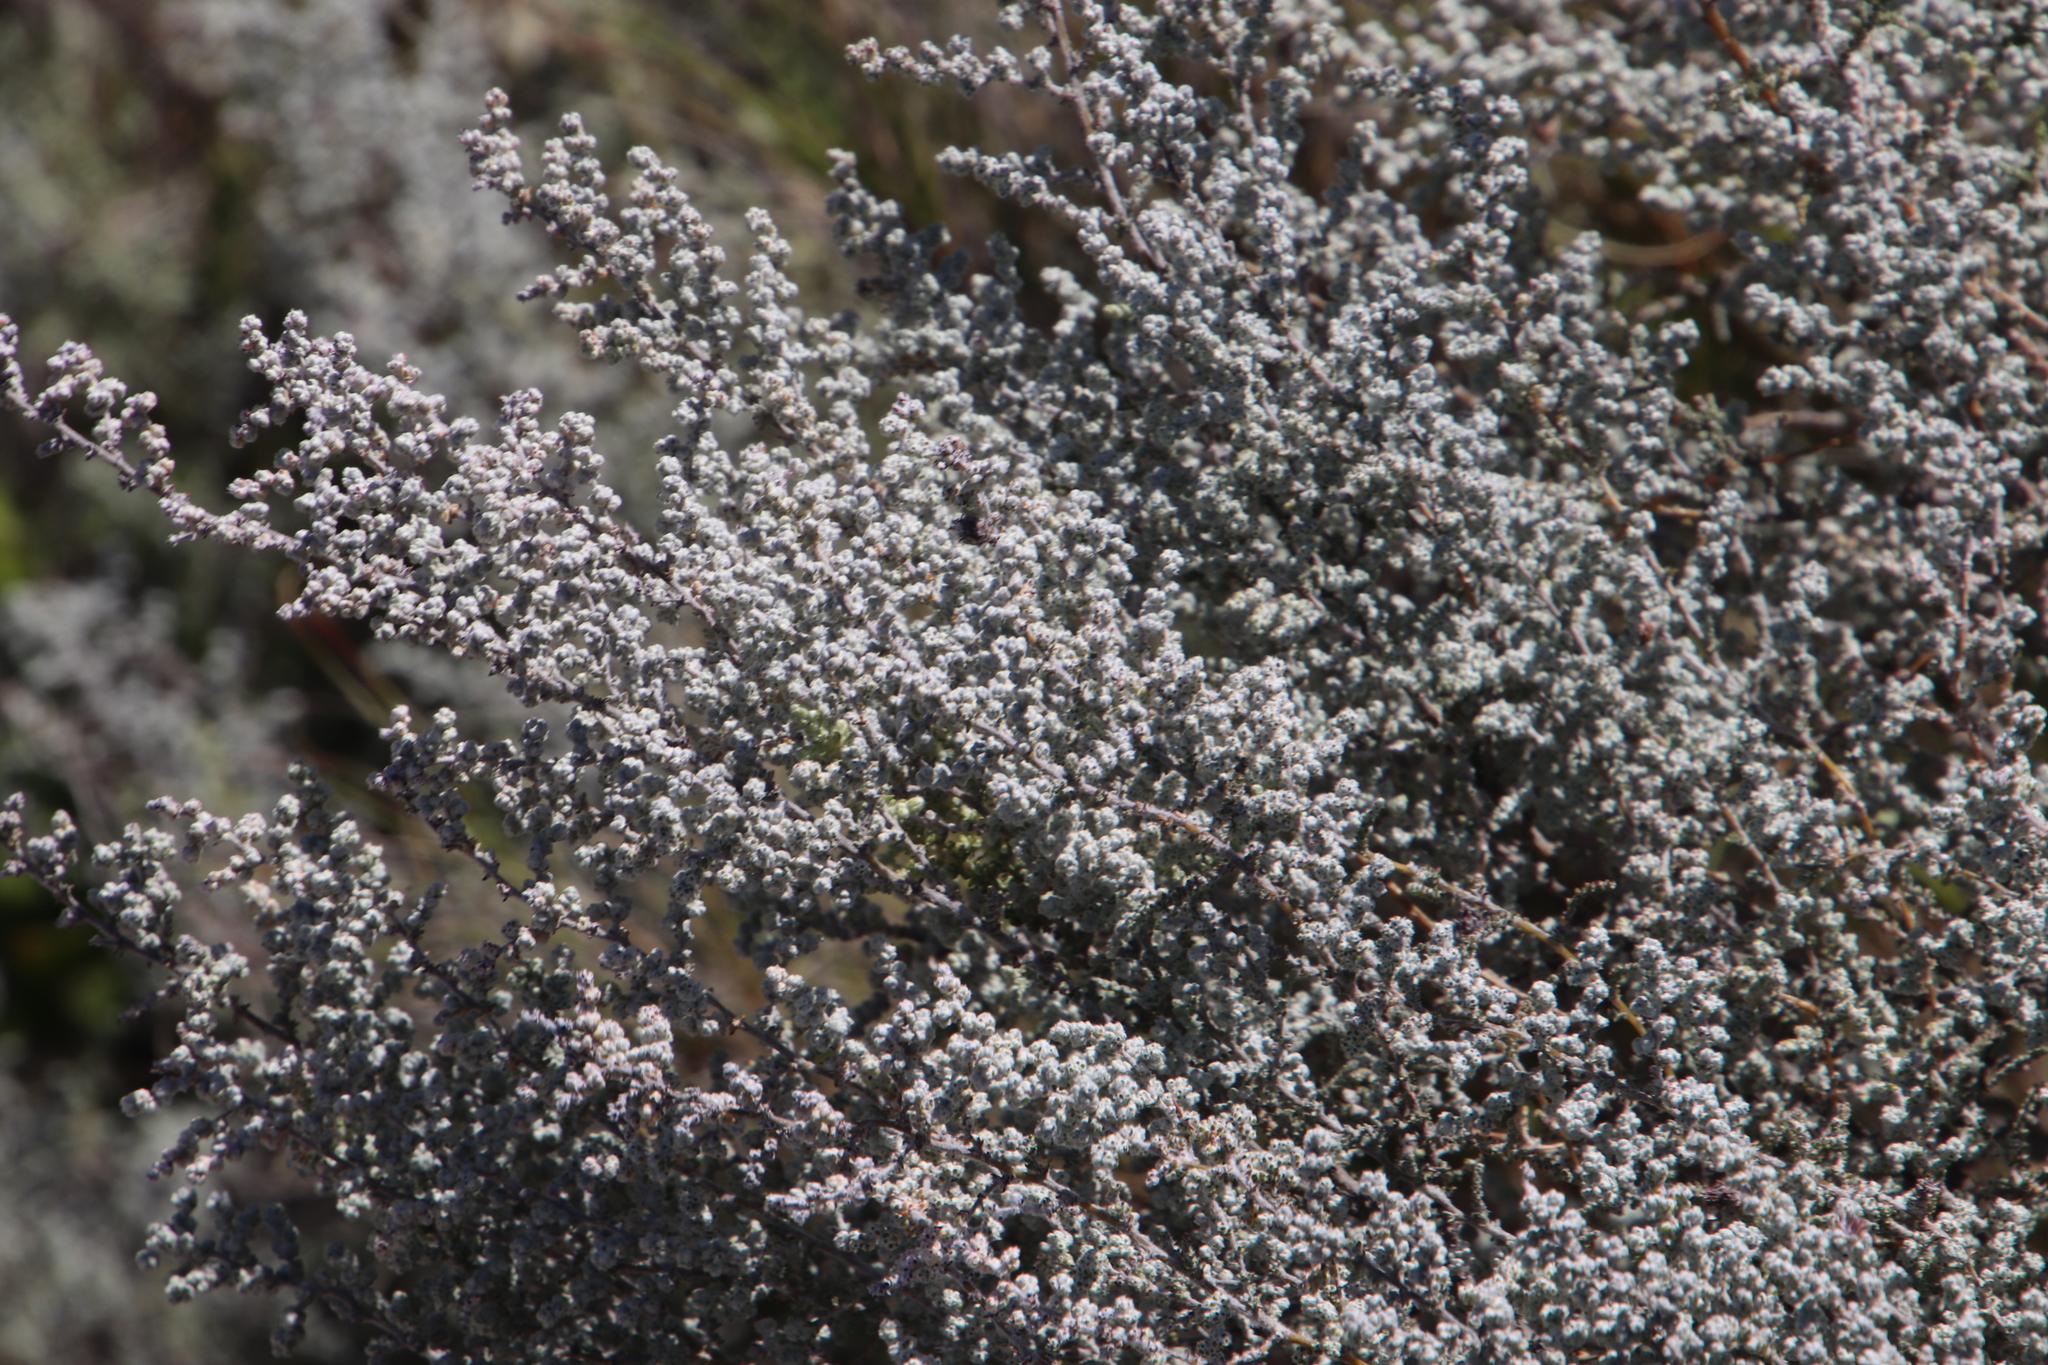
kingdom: Plantae
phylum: Tracheophyta
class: Magnoliopsida
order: Asterales
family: Asteraceae
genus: Seriphium
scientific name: Seriphium plumosum
